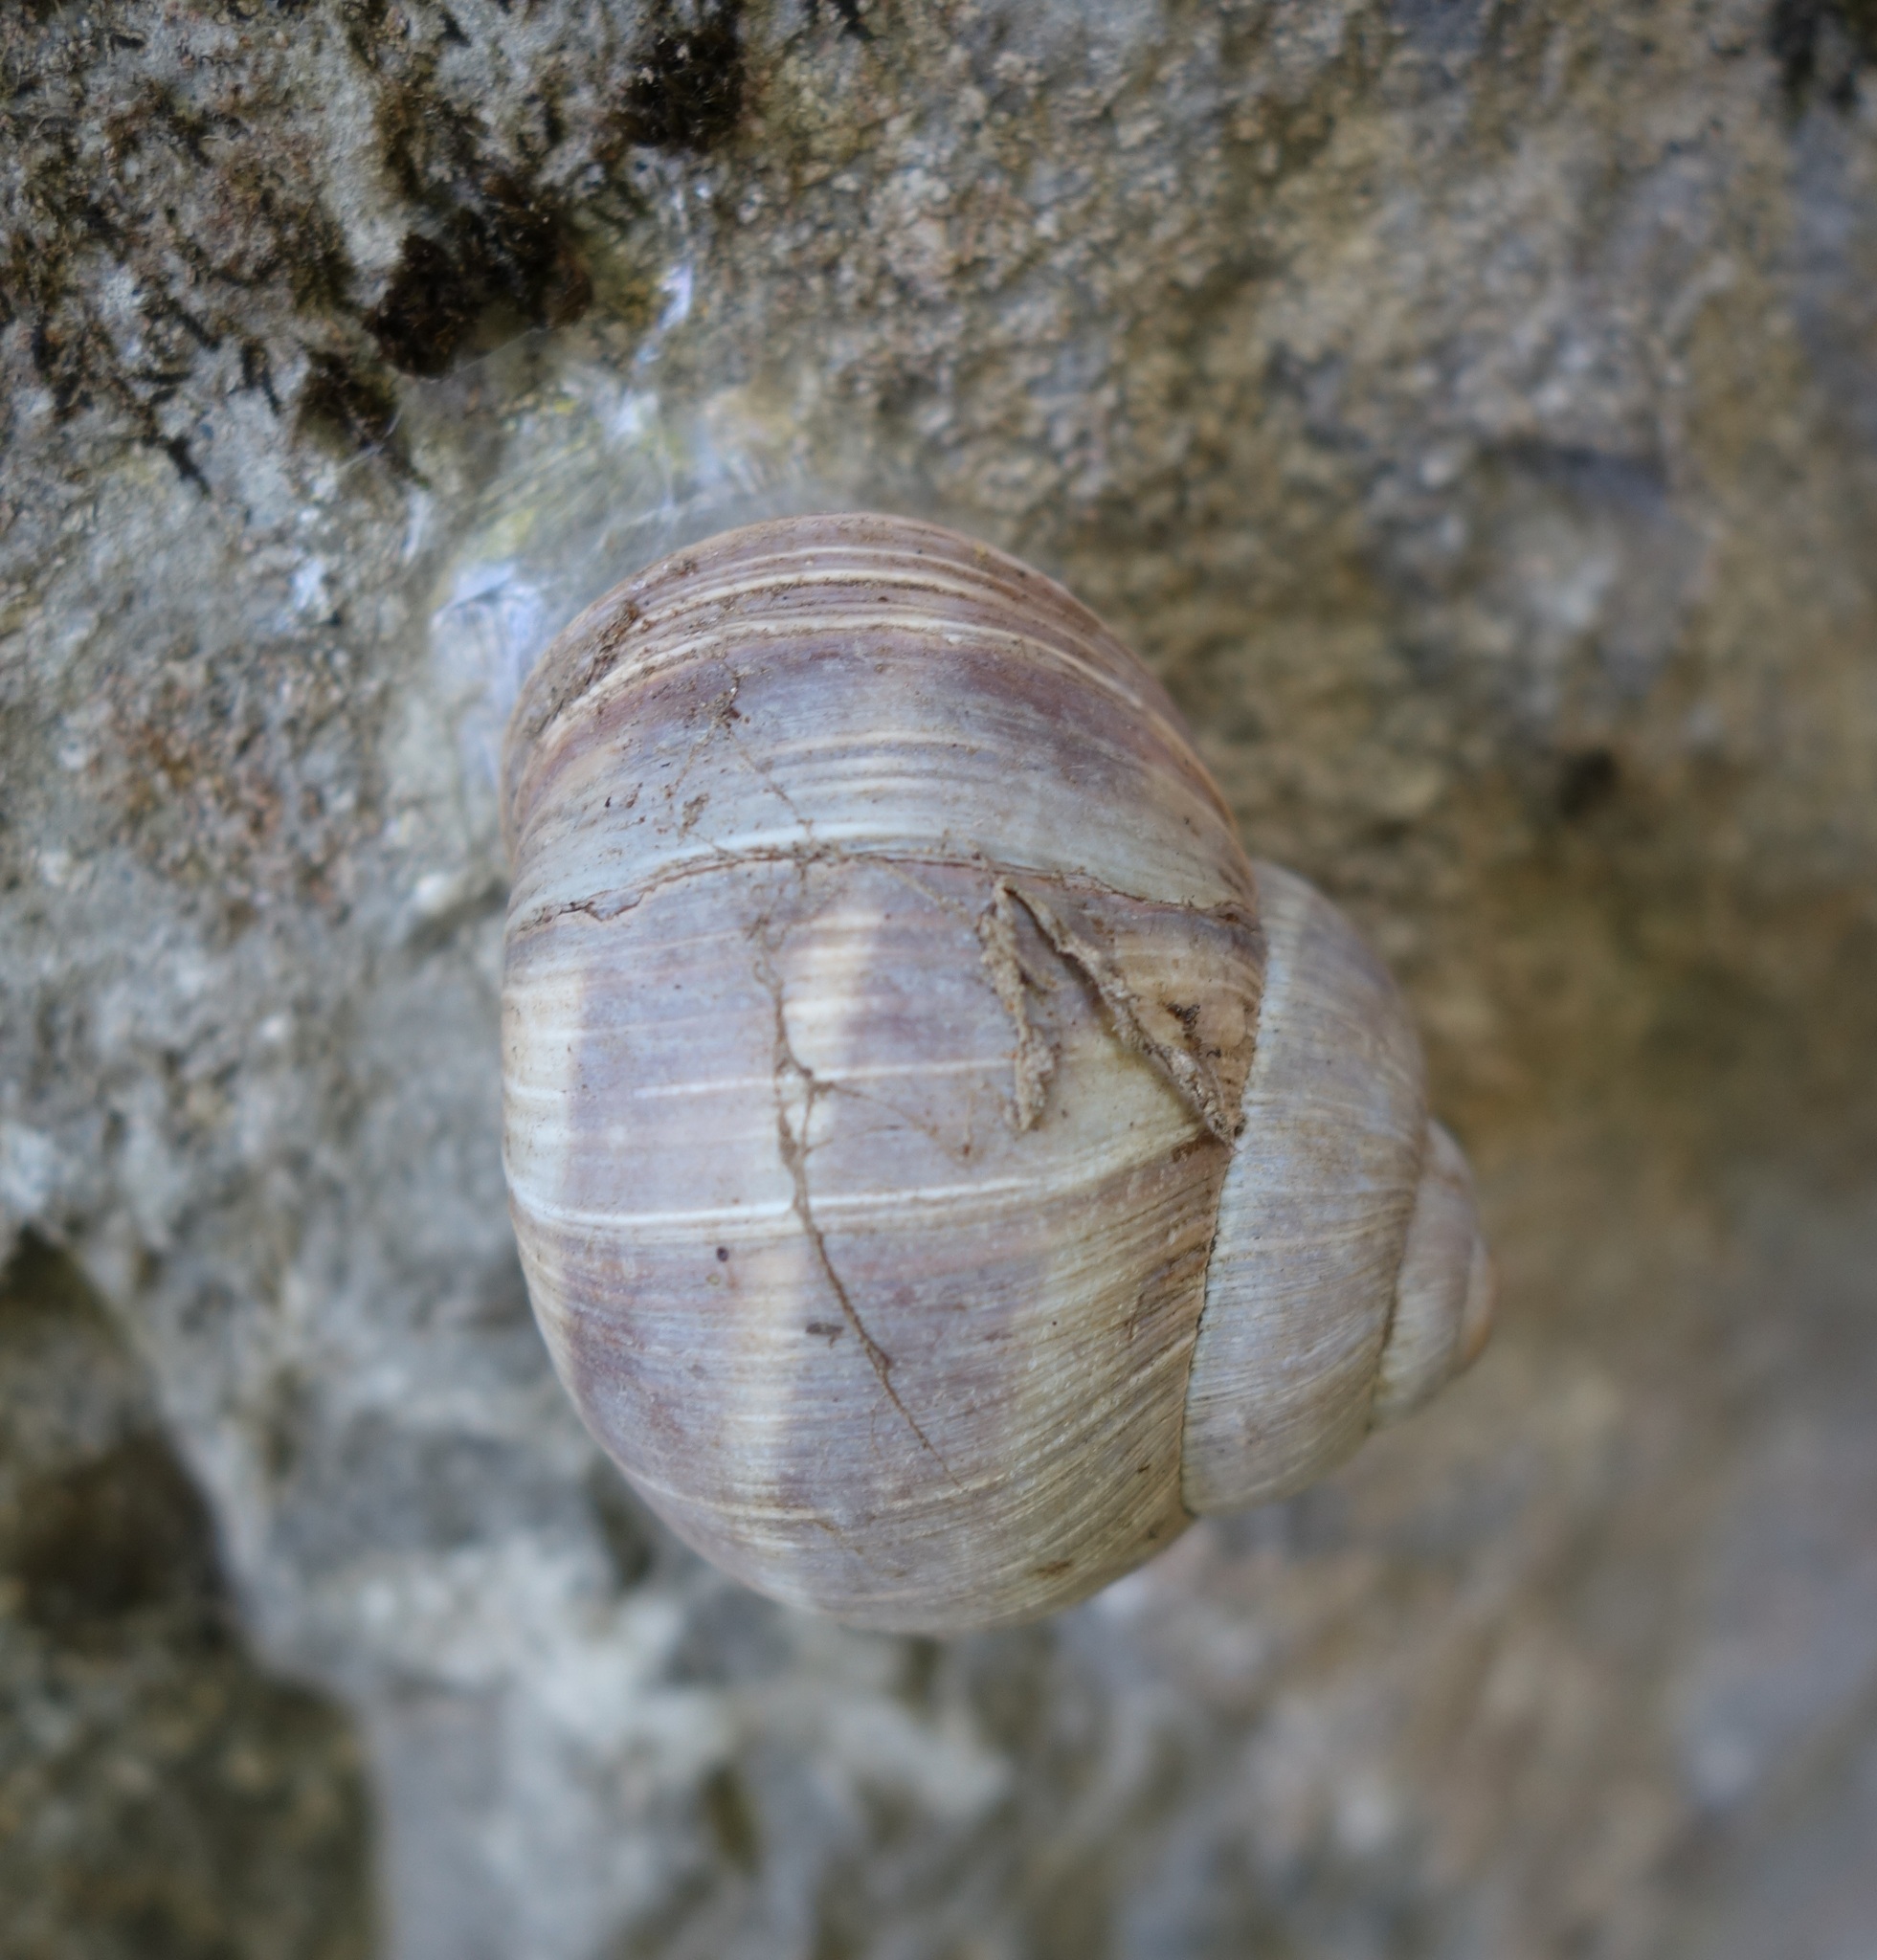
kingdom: Animalia
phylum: Mollusca
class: Gastropoda
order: Stylommatophora
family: Helicidae
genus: Helix
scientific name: Helix pomatia
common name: Roman snail
